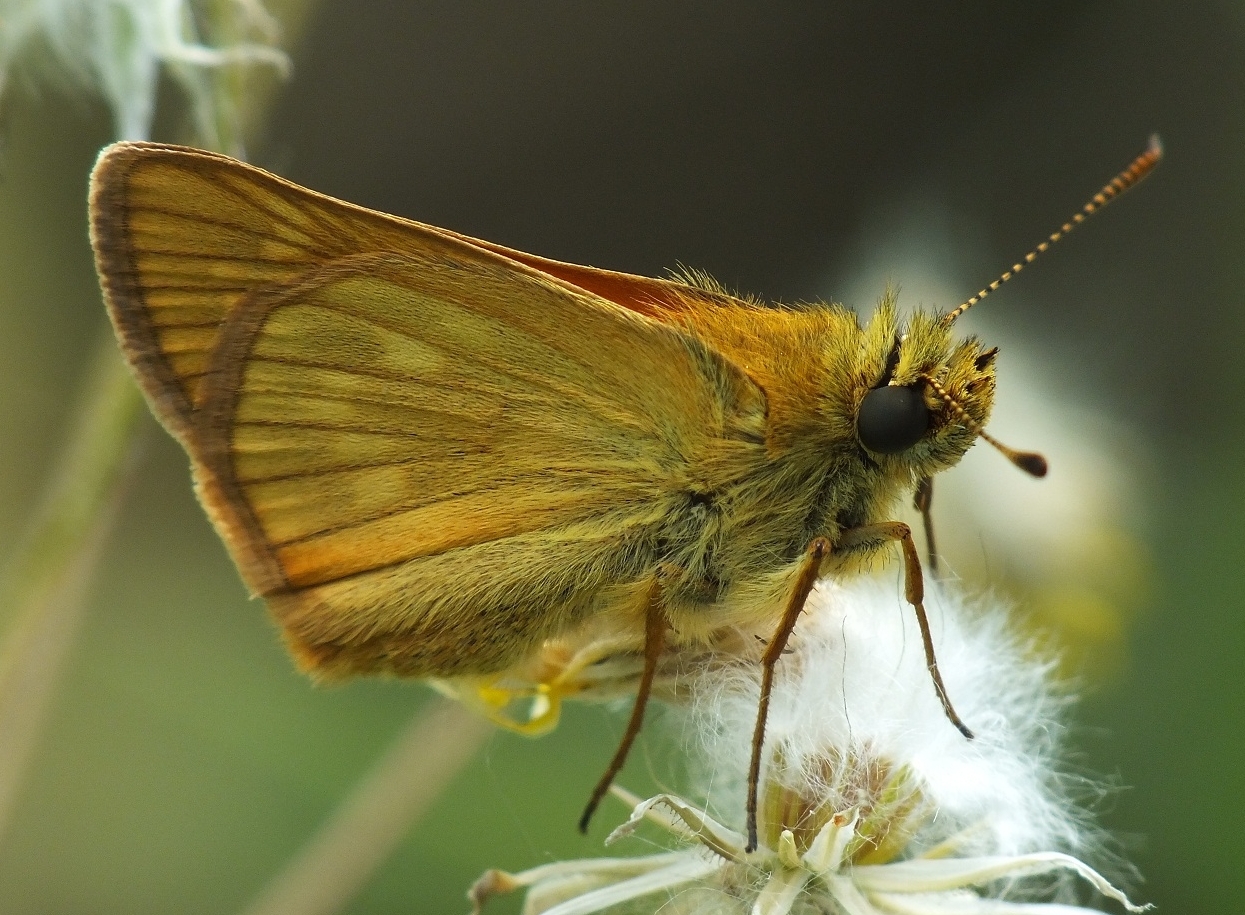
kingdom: Animalia
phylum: Arthropoda
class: Insecta
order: Lepidoptera
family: Hesperiidae
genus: Ochlodes
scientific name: Ochlodes venata
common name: Large skipper
